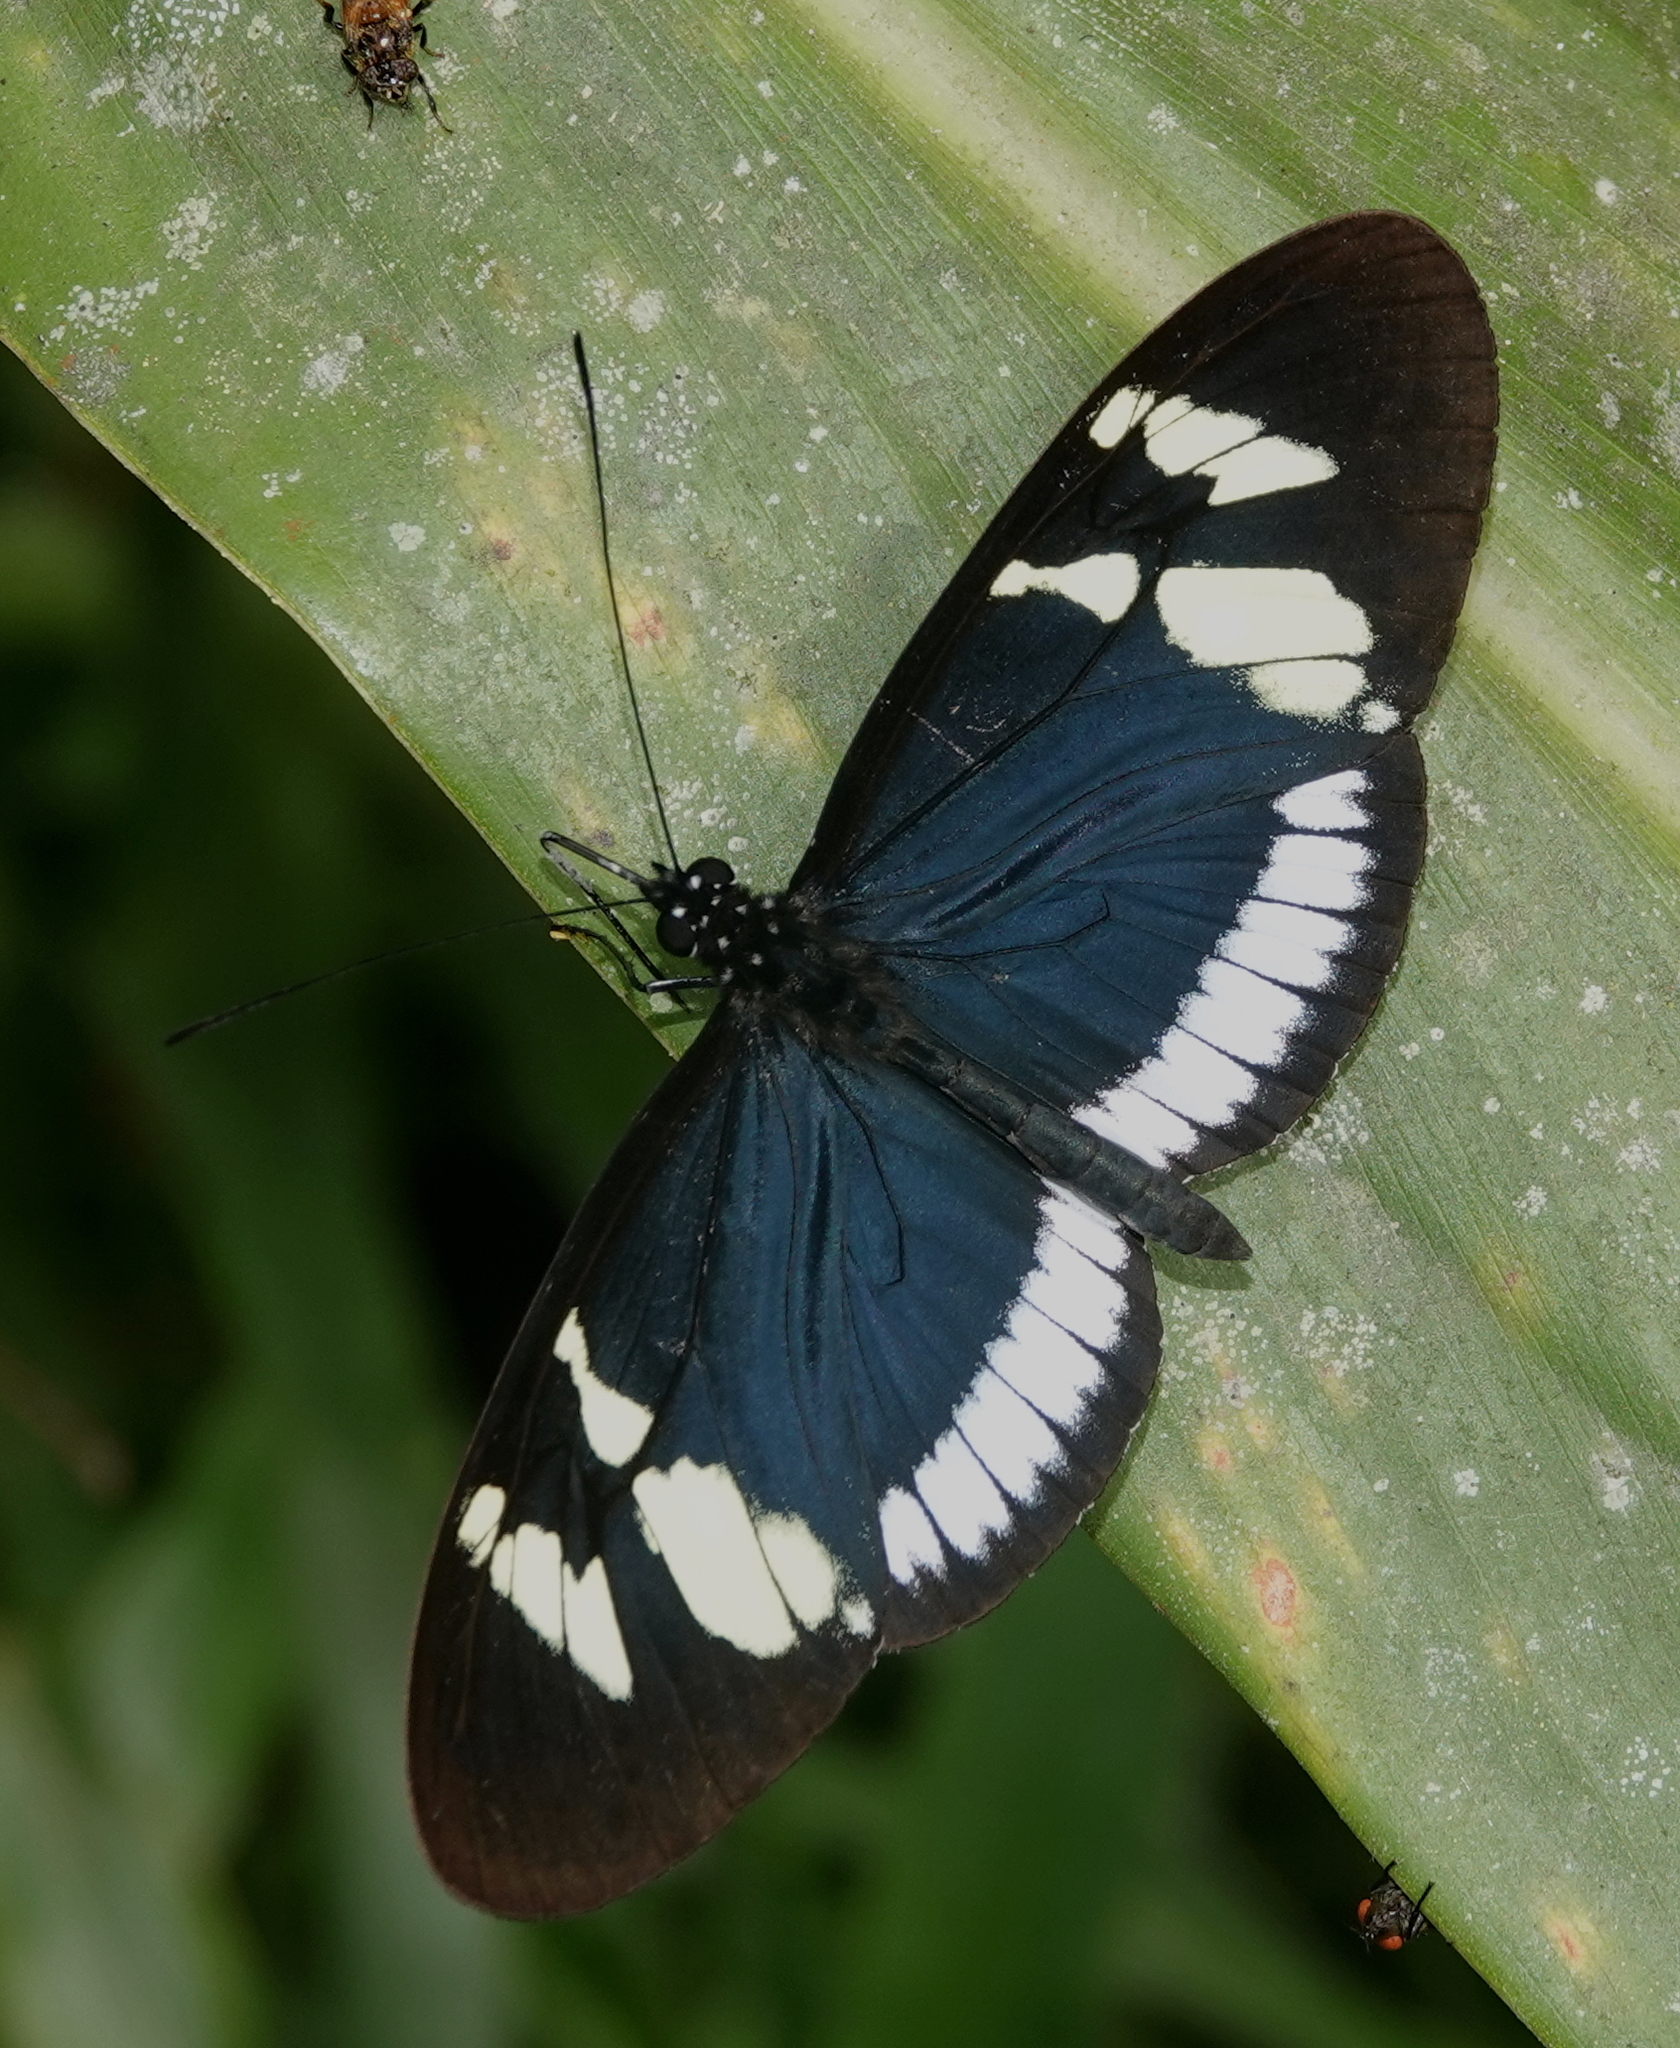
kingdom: Animalia
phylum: Arthropoda
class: Insecta
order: Lepidoptera
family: Nymphalidae
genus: Heliconius
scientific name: Heliconius cydno
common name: Cydno longwing
